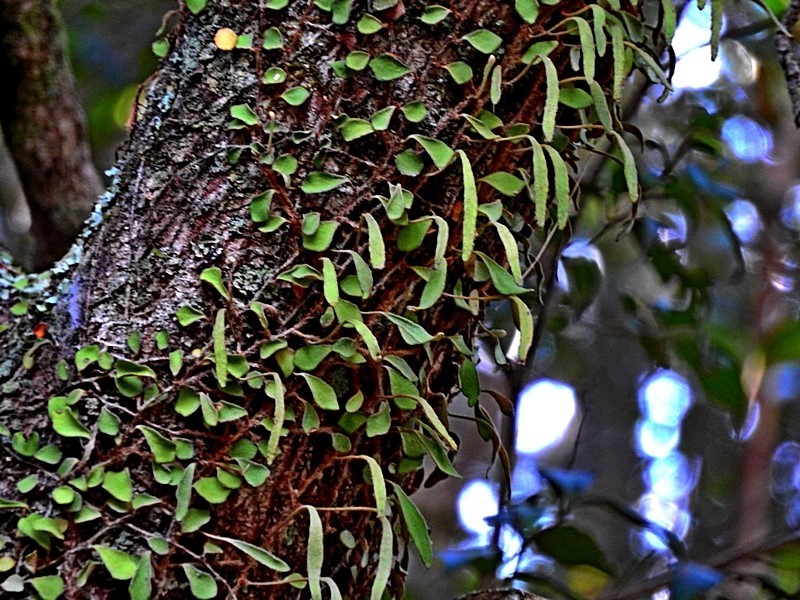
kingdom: Plantae
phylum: Tracheophyta
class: Polypodiopsida
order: Polypodiales
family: Polypodiaceae
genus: Pyrrosia
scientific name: Pyrrosia rupestris
